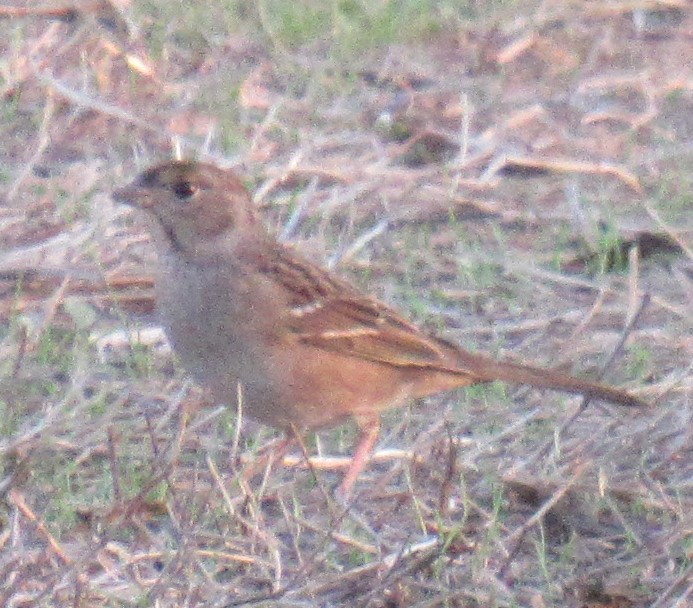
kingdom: Animalia
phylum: Chordata
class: Aves
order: Passeriformes
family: Passerellidae
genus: Zonotrichia
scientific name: Zonotrichia atricapilla
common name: Golden-crowned sparrow
